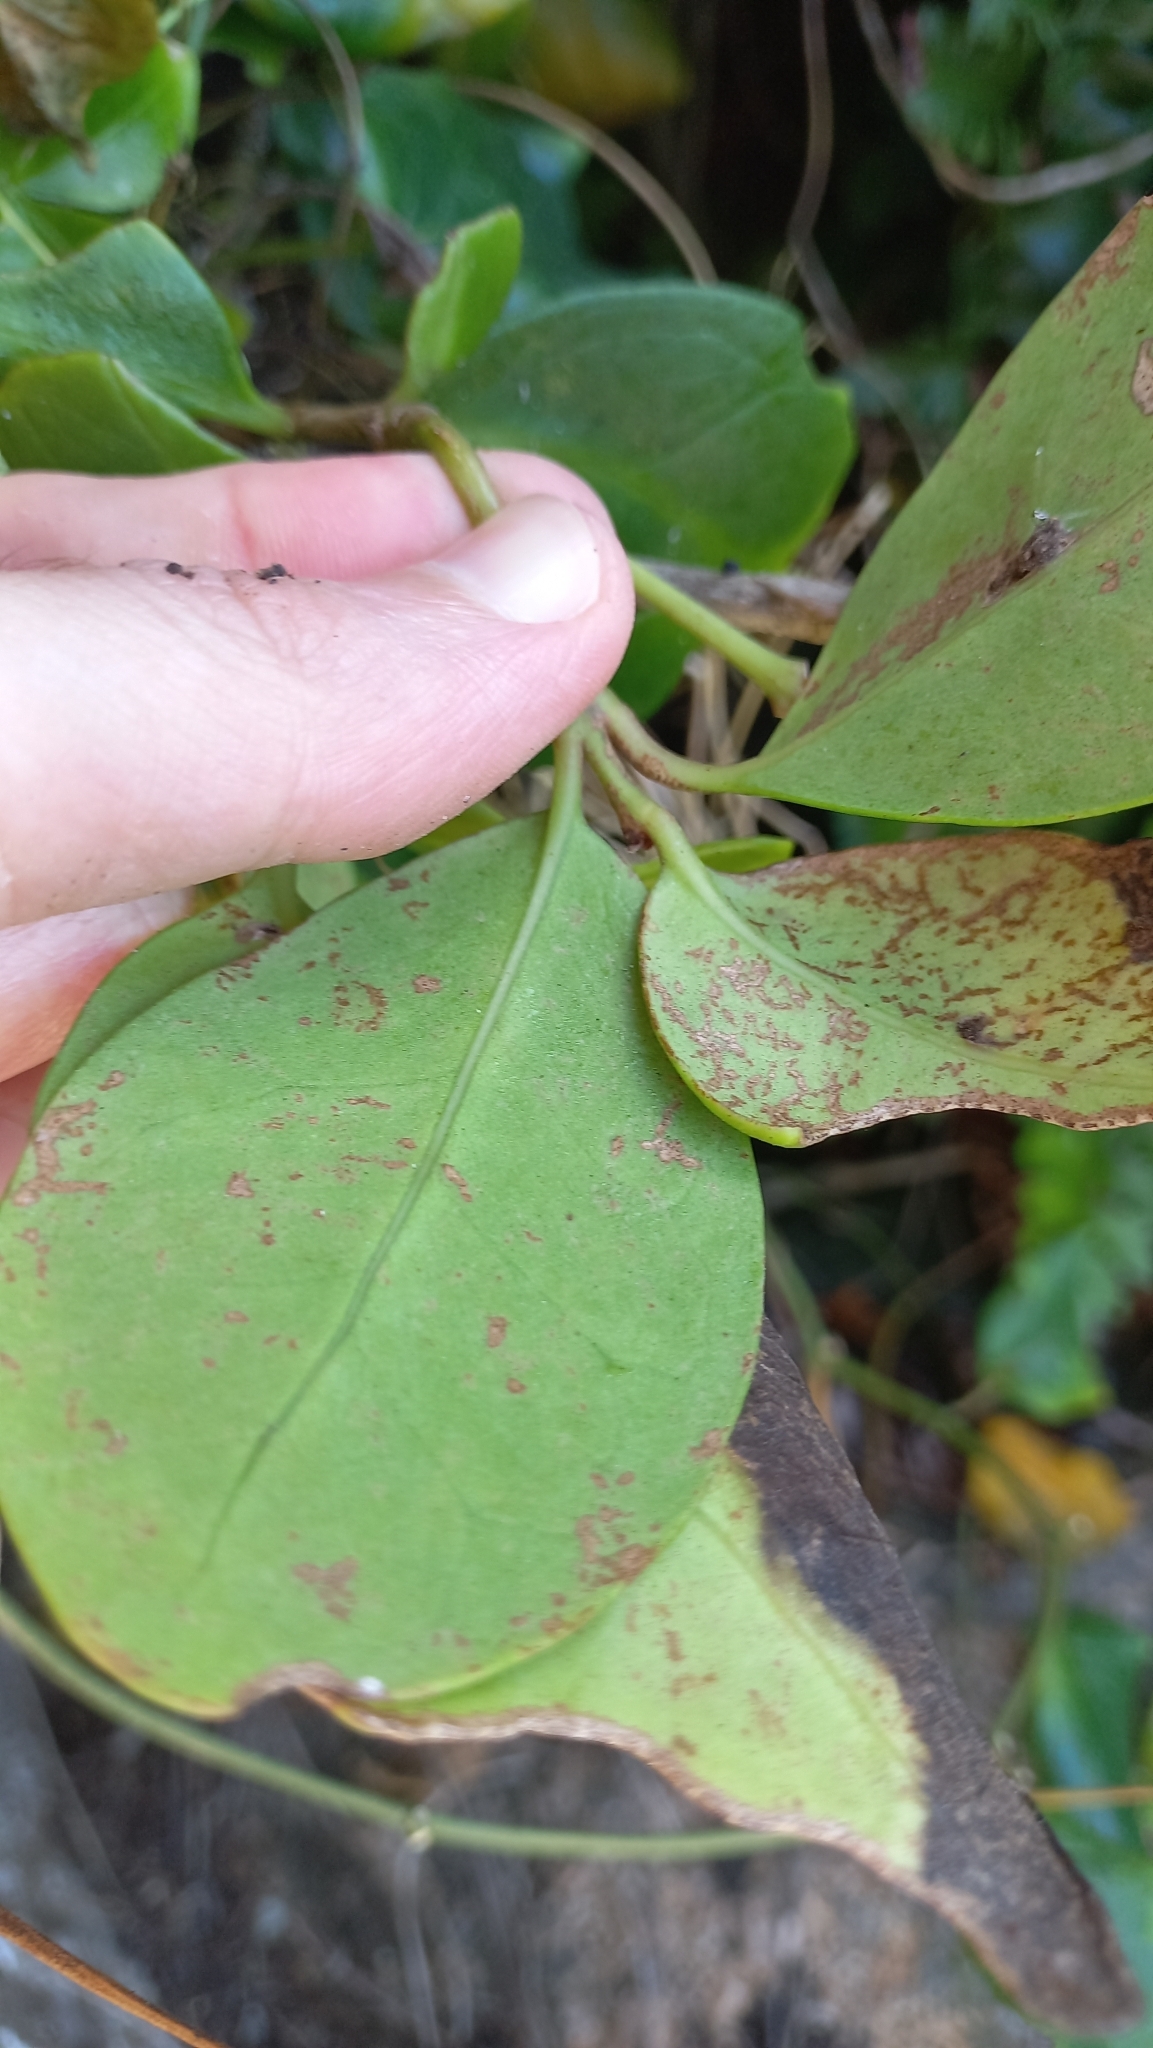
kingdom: Plantae
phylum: Tracheophyta
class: Magnoliopsida
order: Caryophyllales
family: Nyctaginaceae
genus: Guapira
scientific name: Guapira opposita
